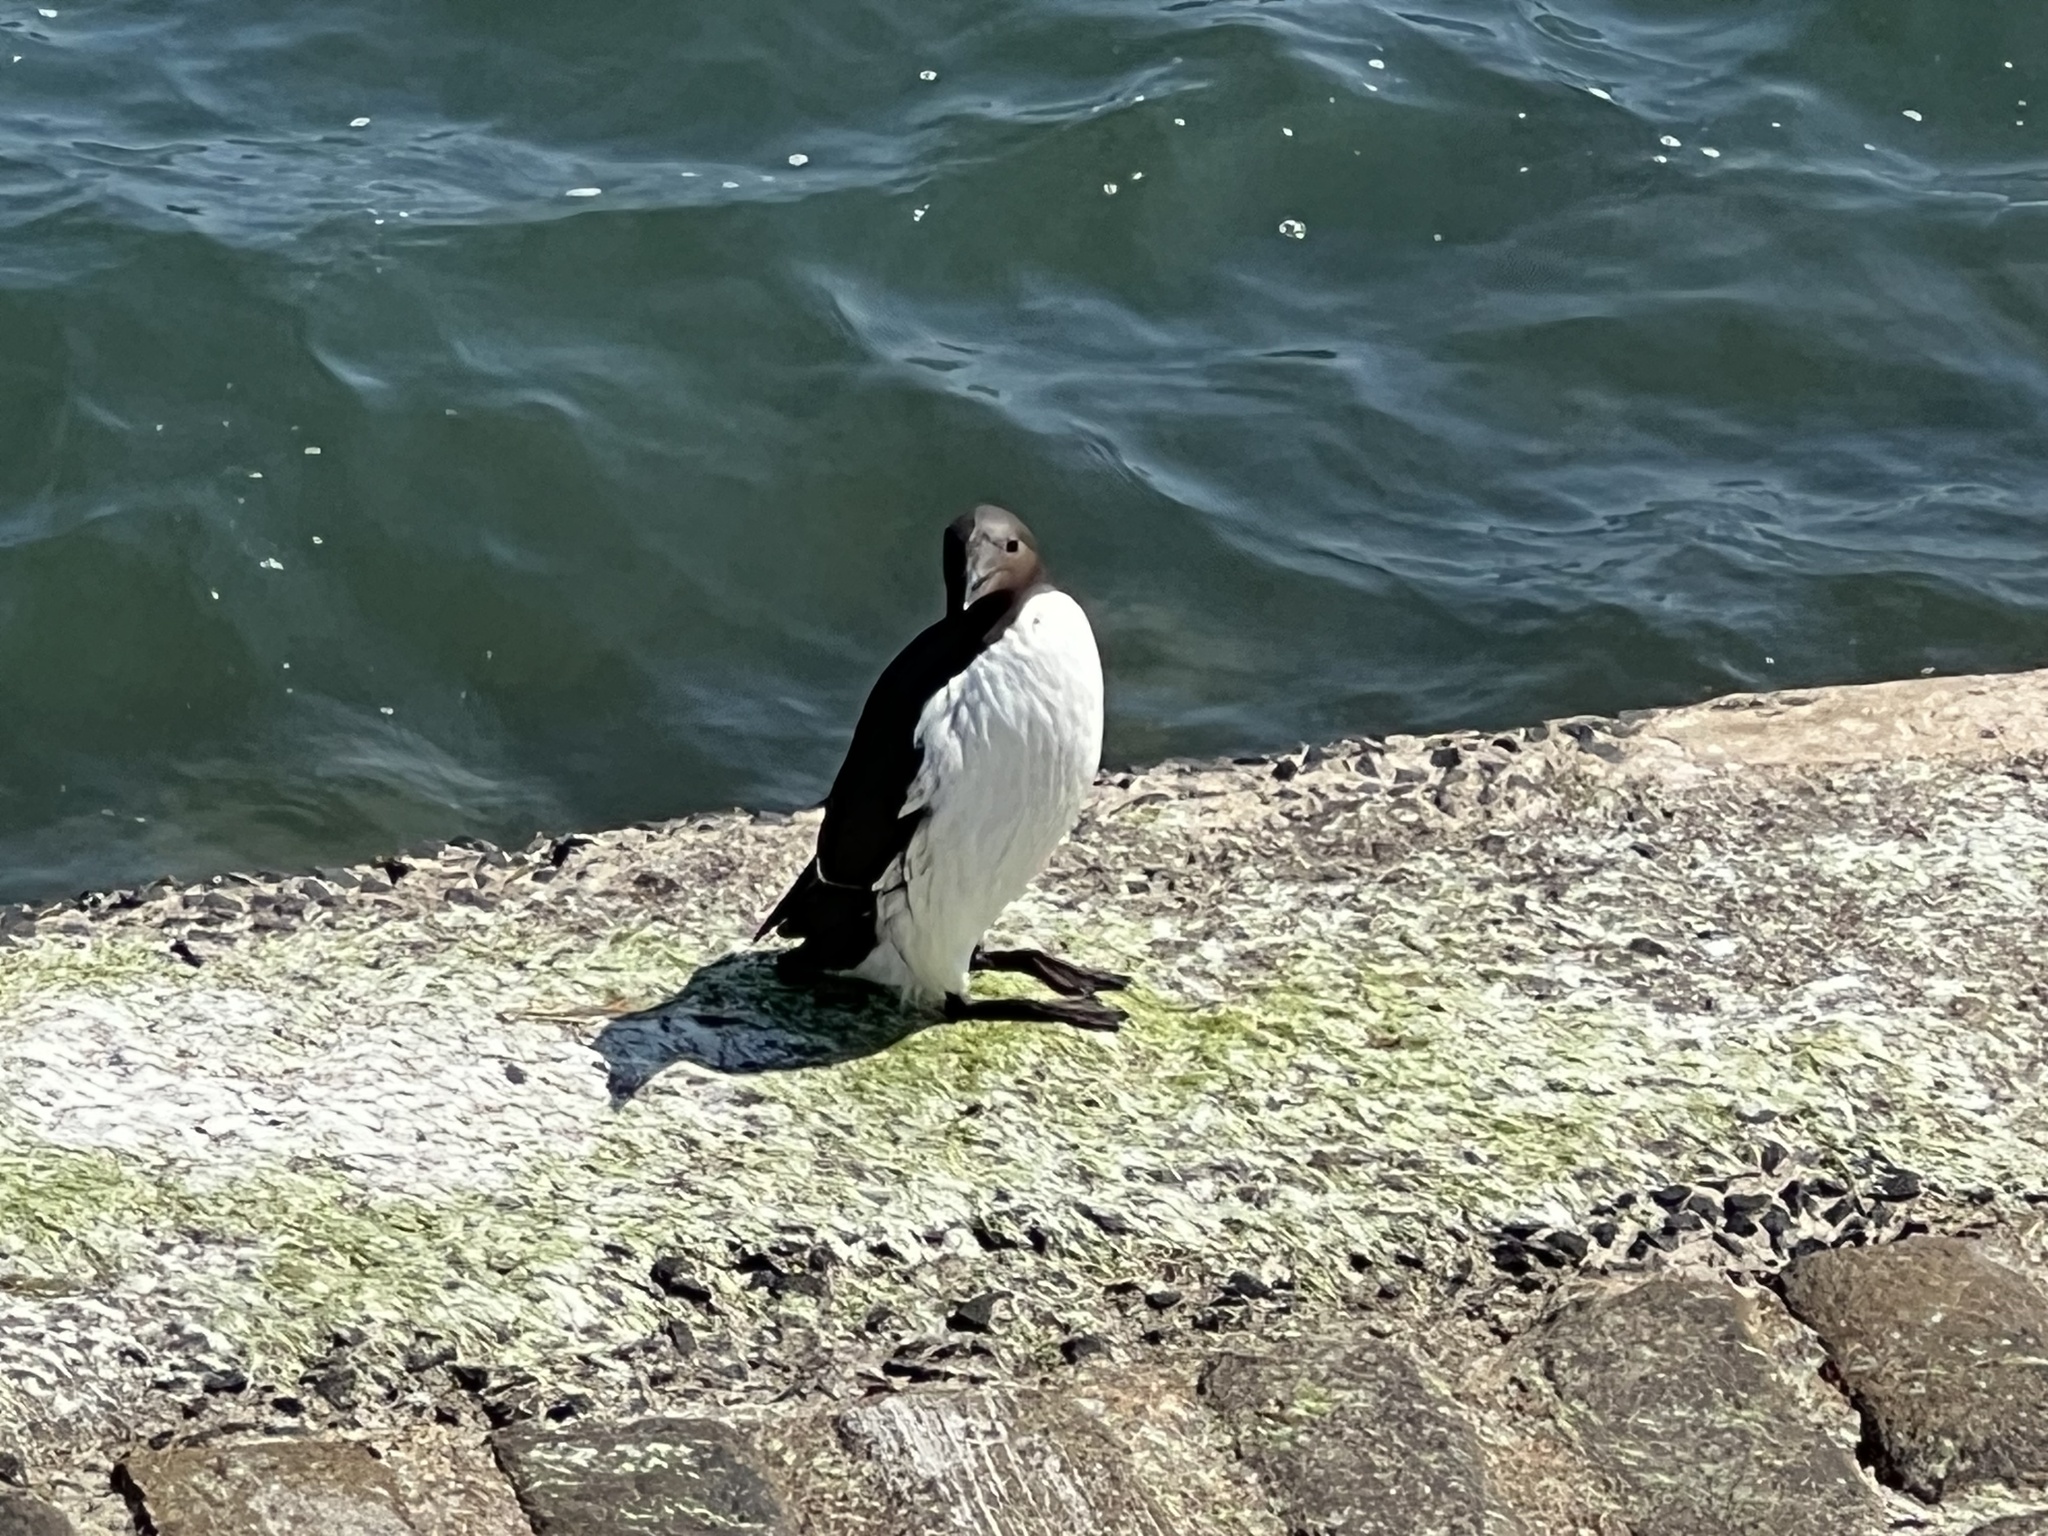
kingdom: Animalia
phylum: Chordata
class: Aves
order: Charadriiformes
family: Alcidae
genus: Uria
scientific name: Uria aalge
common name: Common murre
